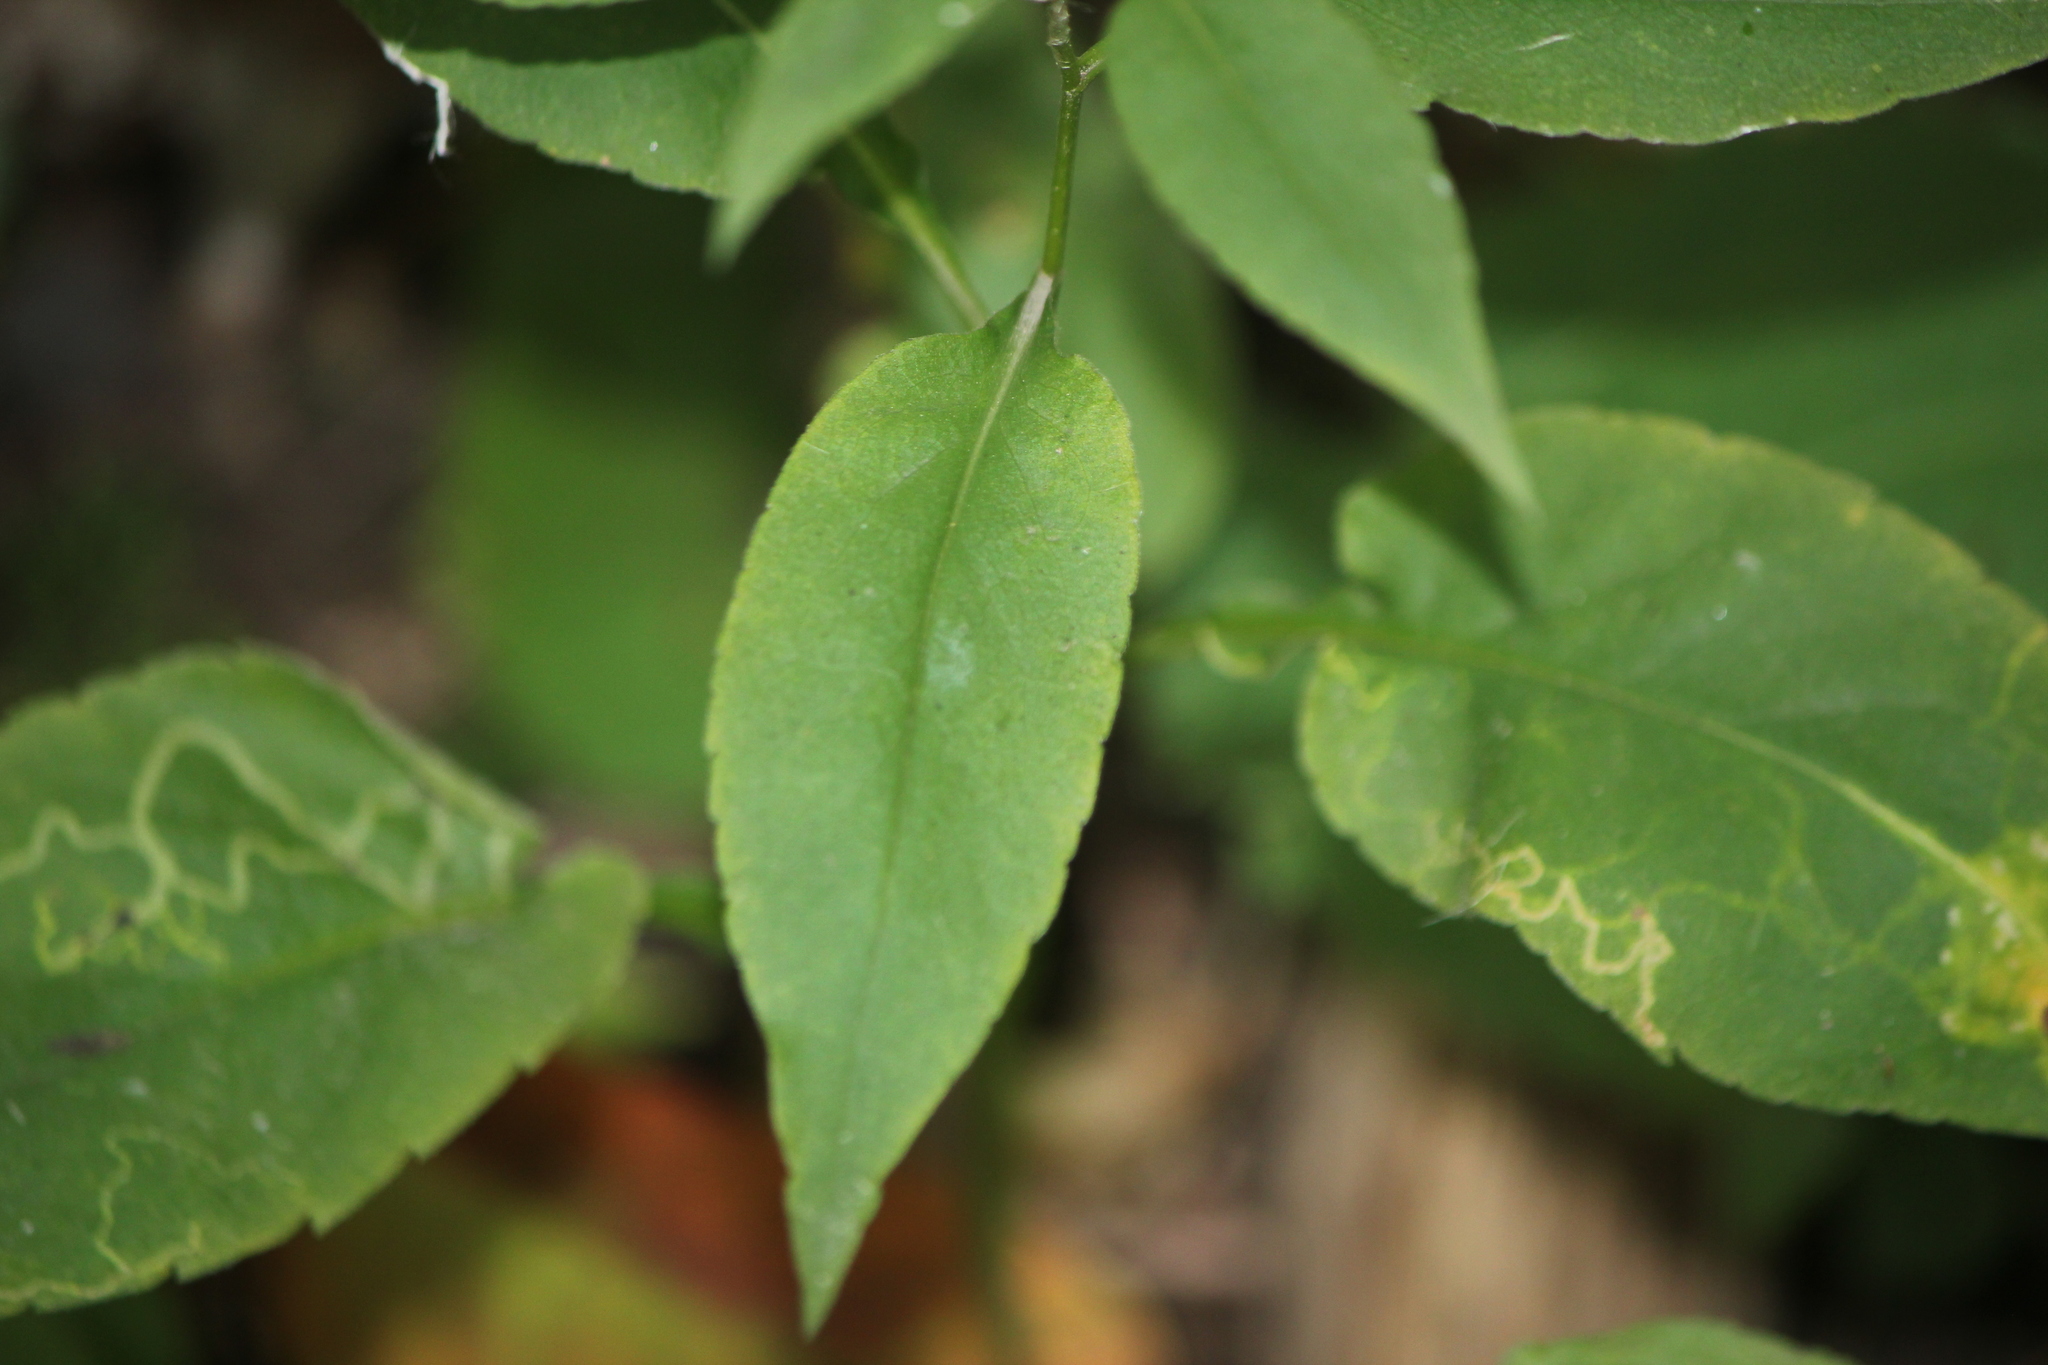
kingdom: Plantae
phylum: Tracheophyta
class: Magnoliopsida
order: Asterales
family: Asteraceae
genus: Symphyotrichum
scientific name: Symphyotrichum urophyllum
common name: Arrow-leaved aster
